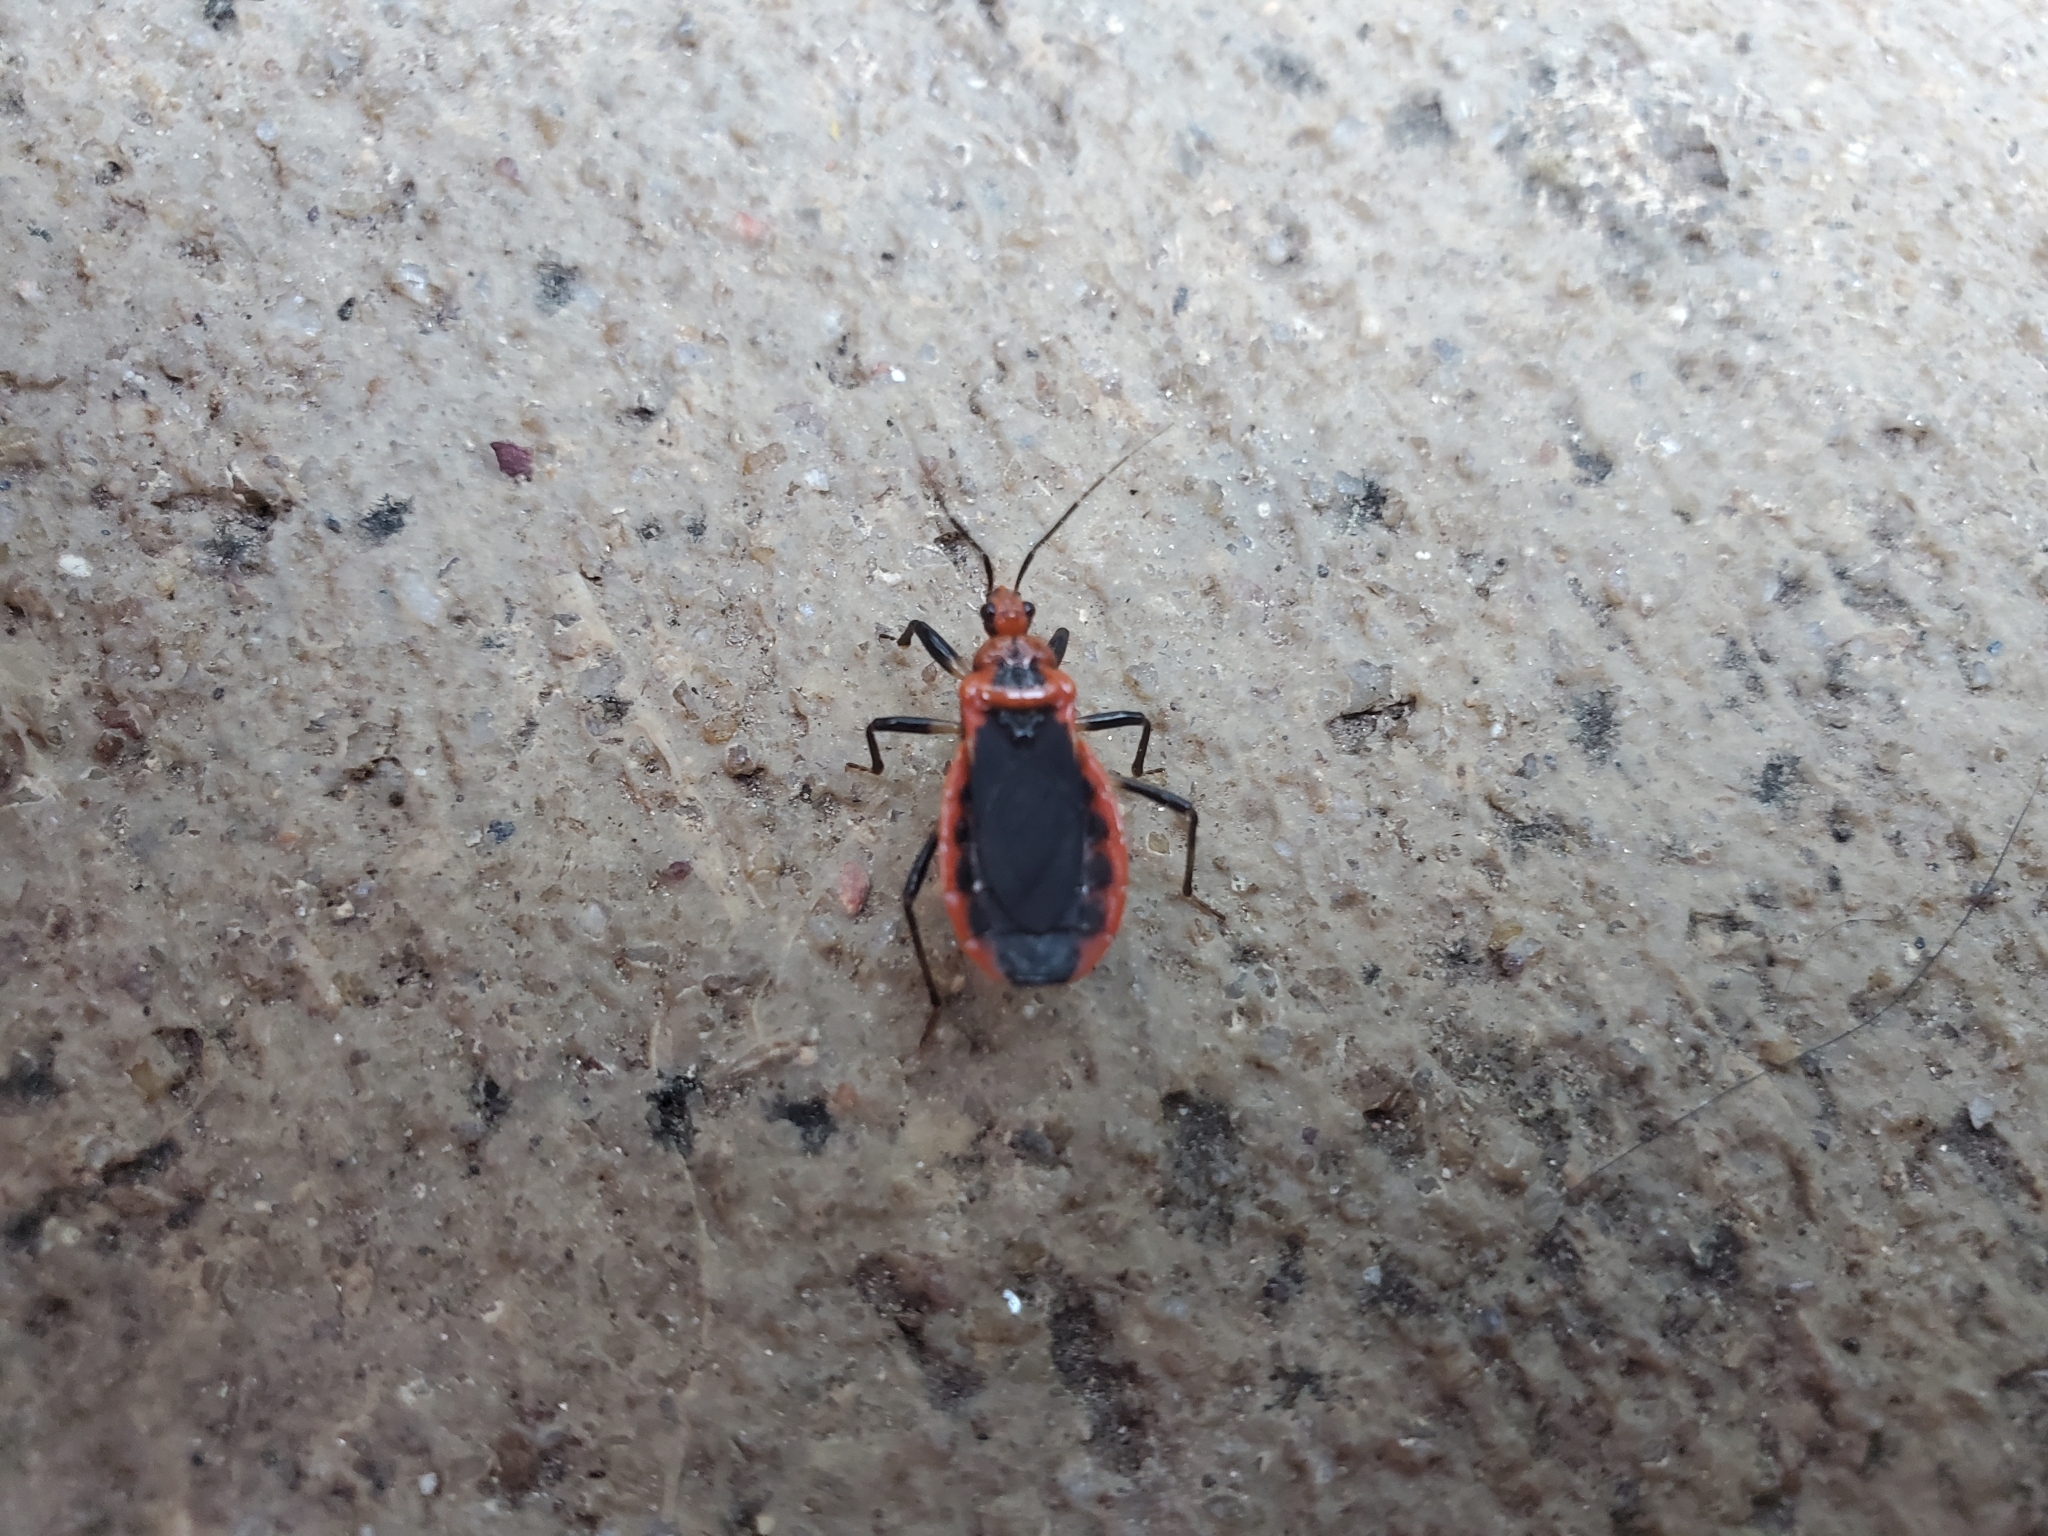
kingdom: Animalia
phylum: Arthropoda
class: Insecta
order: Hemiptera
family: Reduviidae
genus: Rhiginia
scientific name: Rhiginia cruciata
